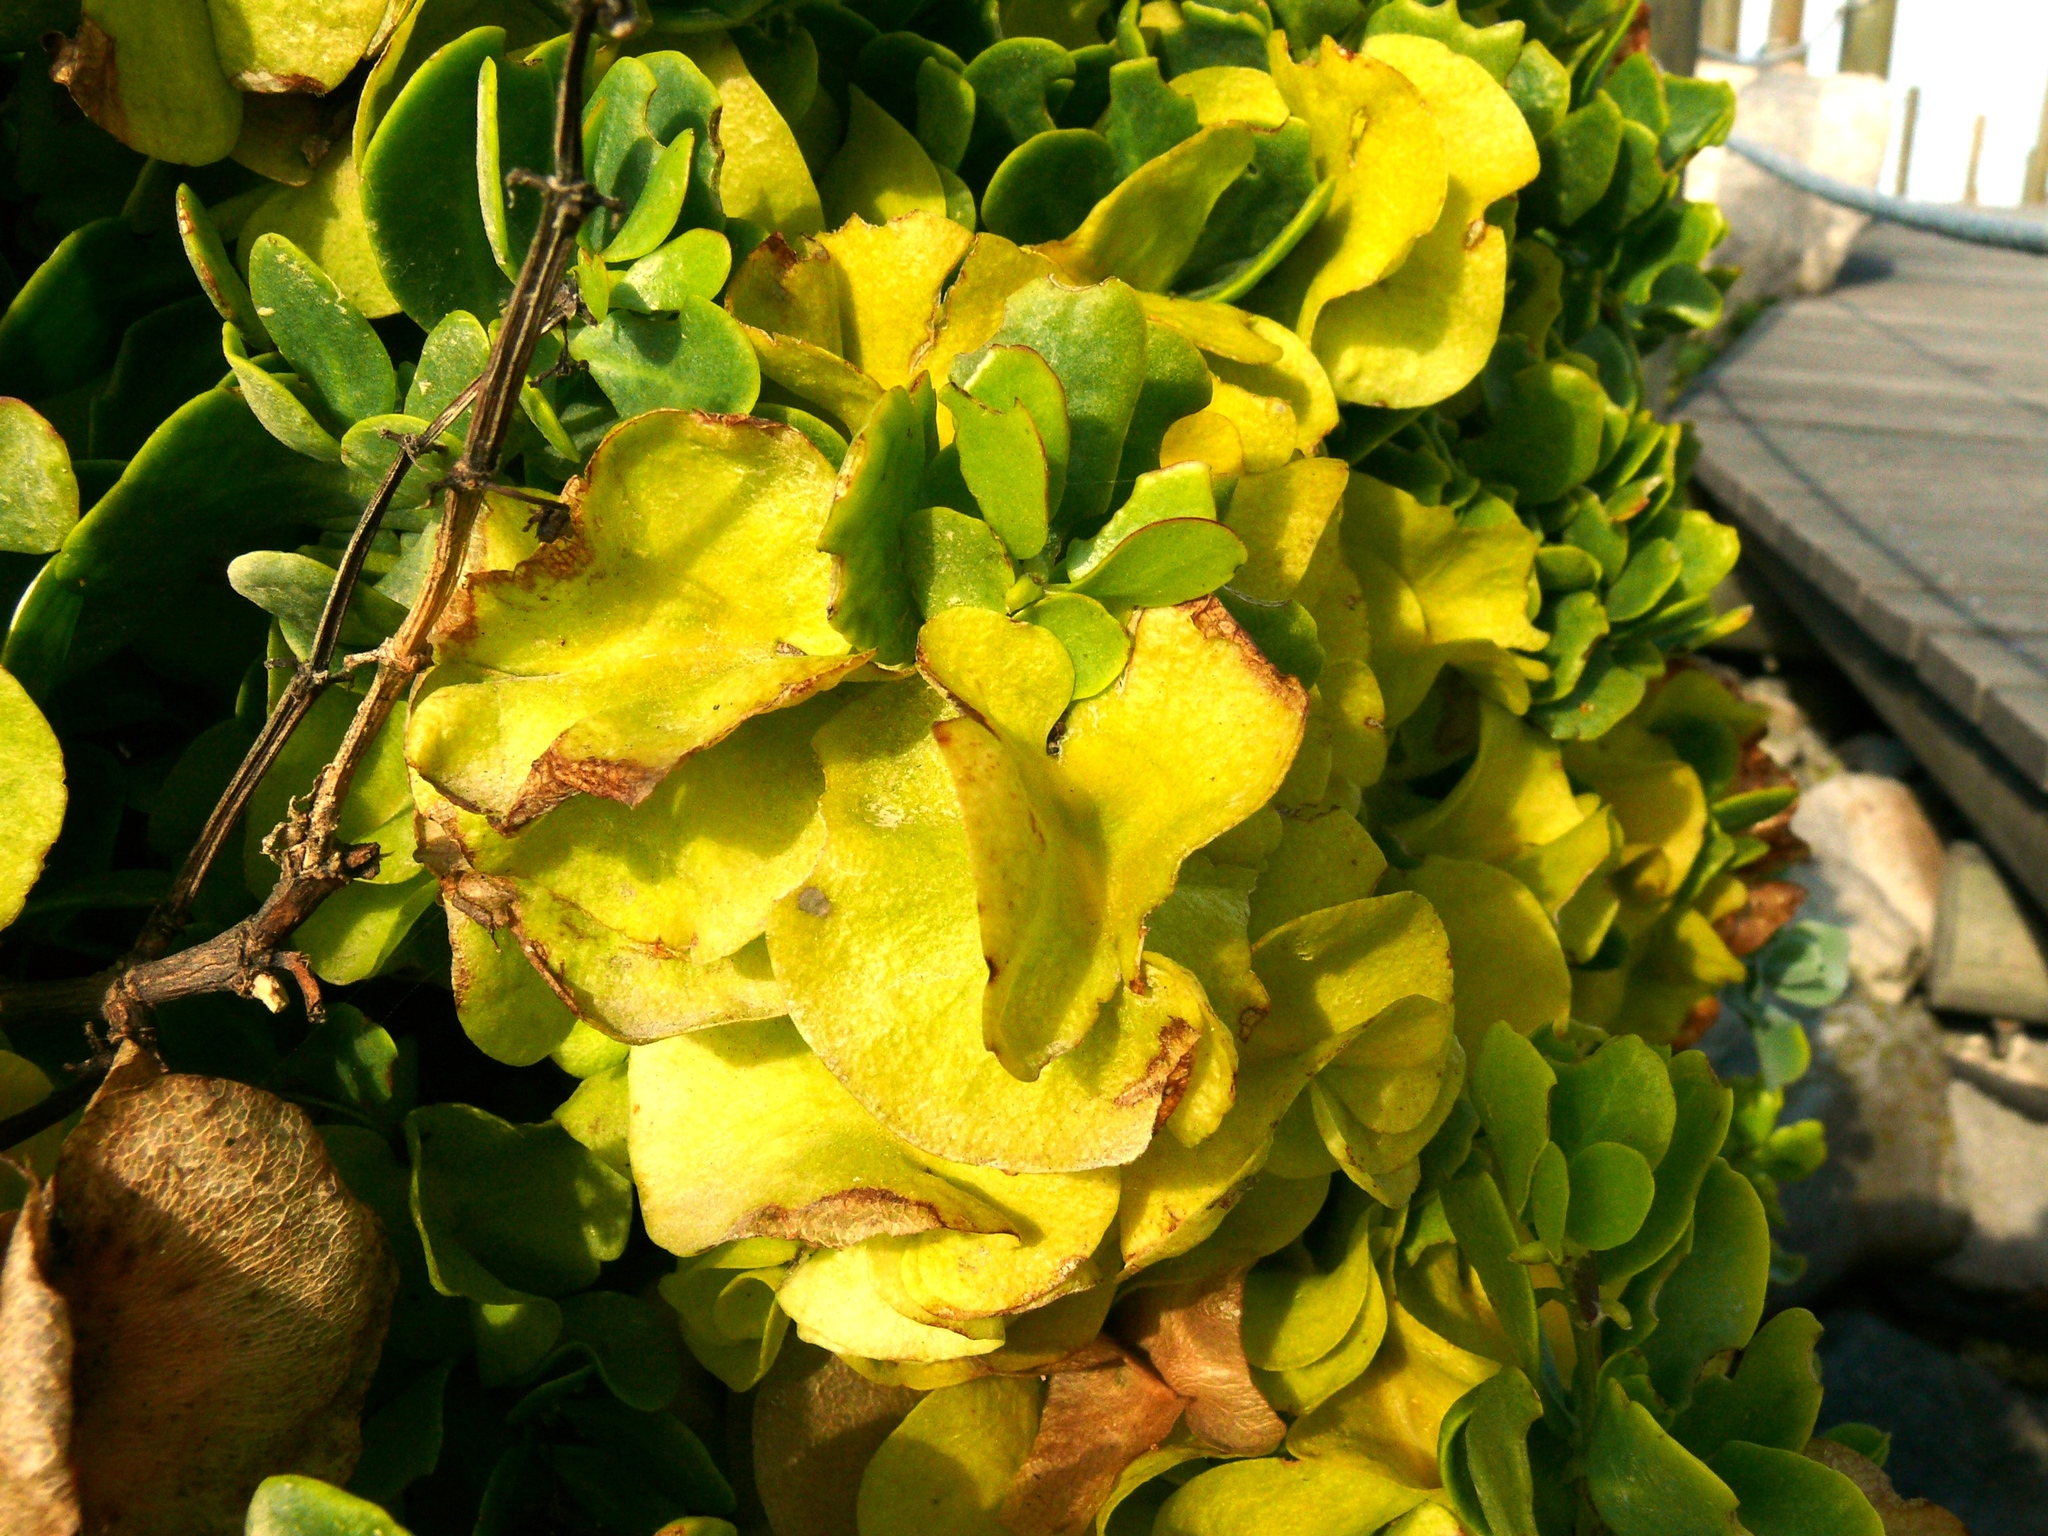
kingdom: Plantae
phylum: Tracheophyta
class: Magnoliopsida
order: Zygophyllales
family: Zygophyllaceae
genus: Roepera
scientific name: Roepera morgsana
